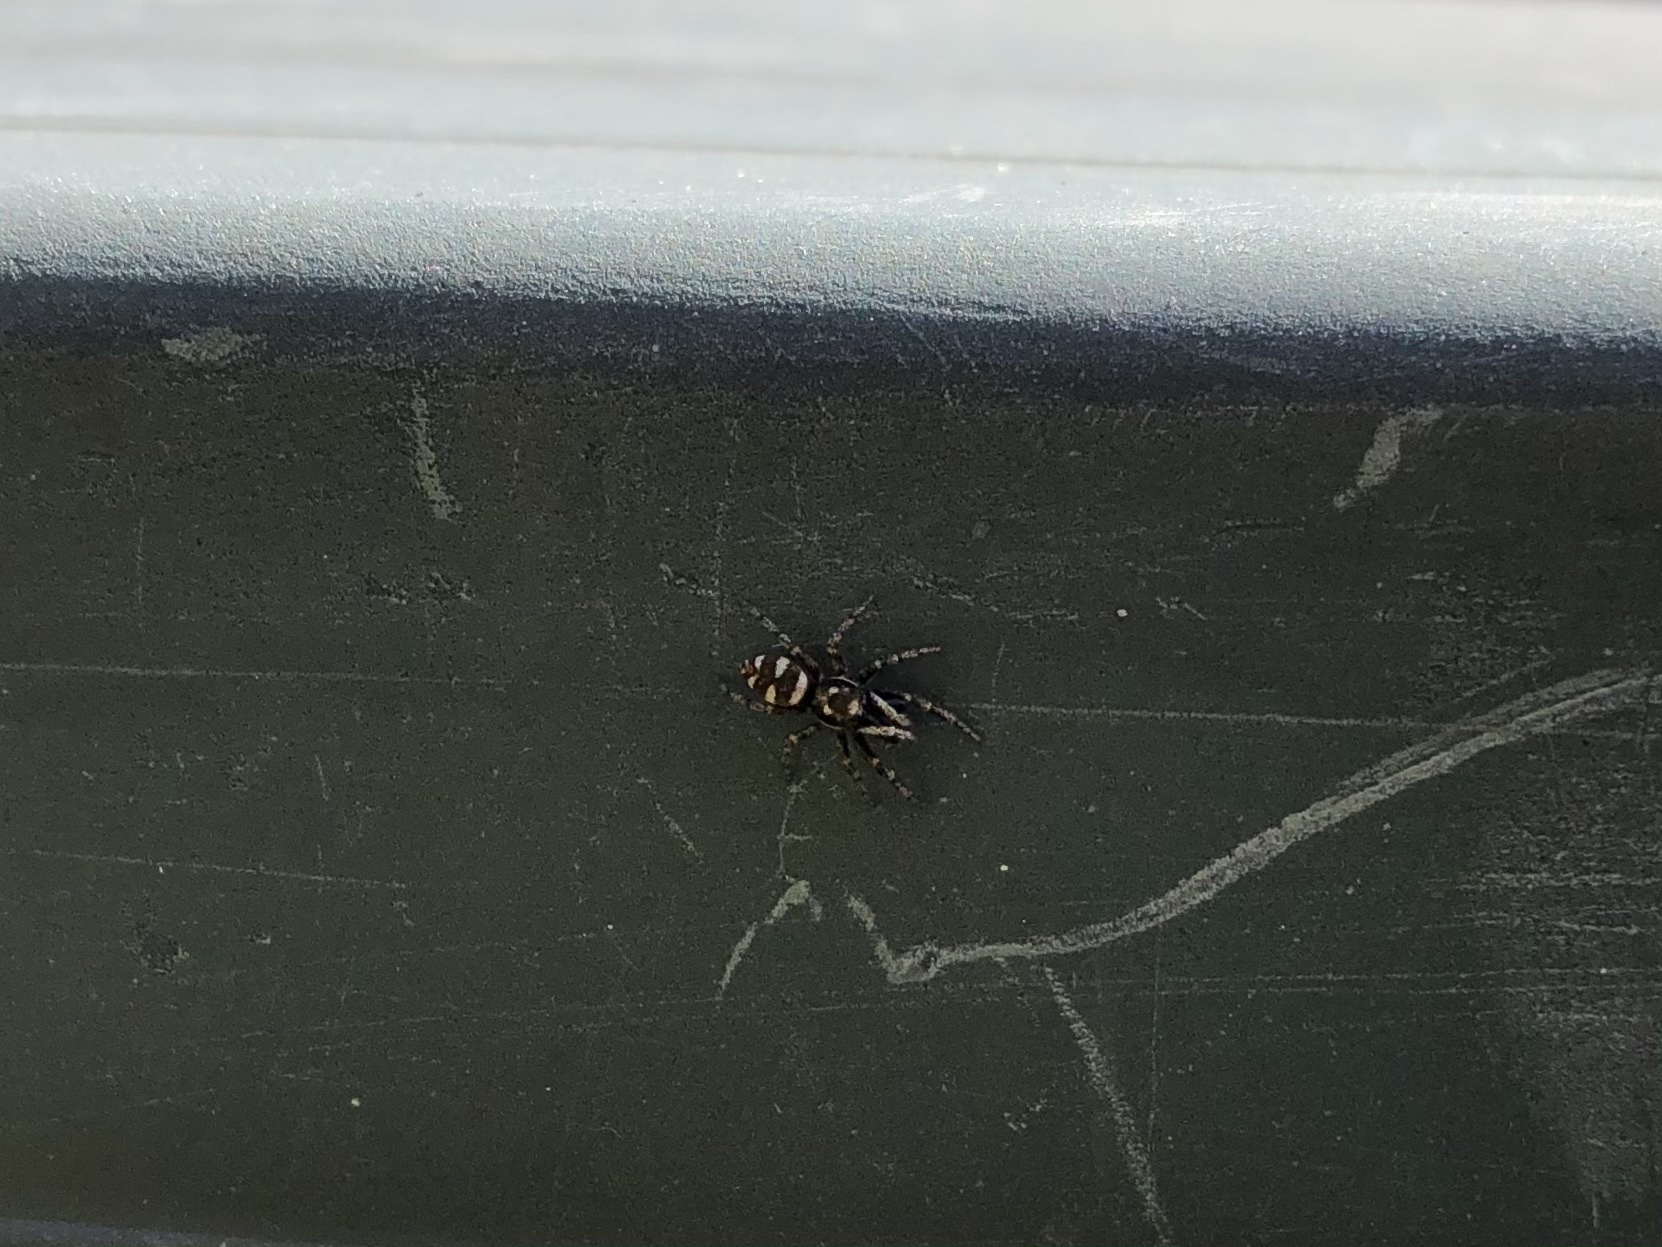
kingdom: Animalia
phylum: Arthropoda
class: Arachnida
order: Araneae
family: Salticidae
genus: Salticus
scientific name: Salticus scenicus
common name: Zebra jumper
